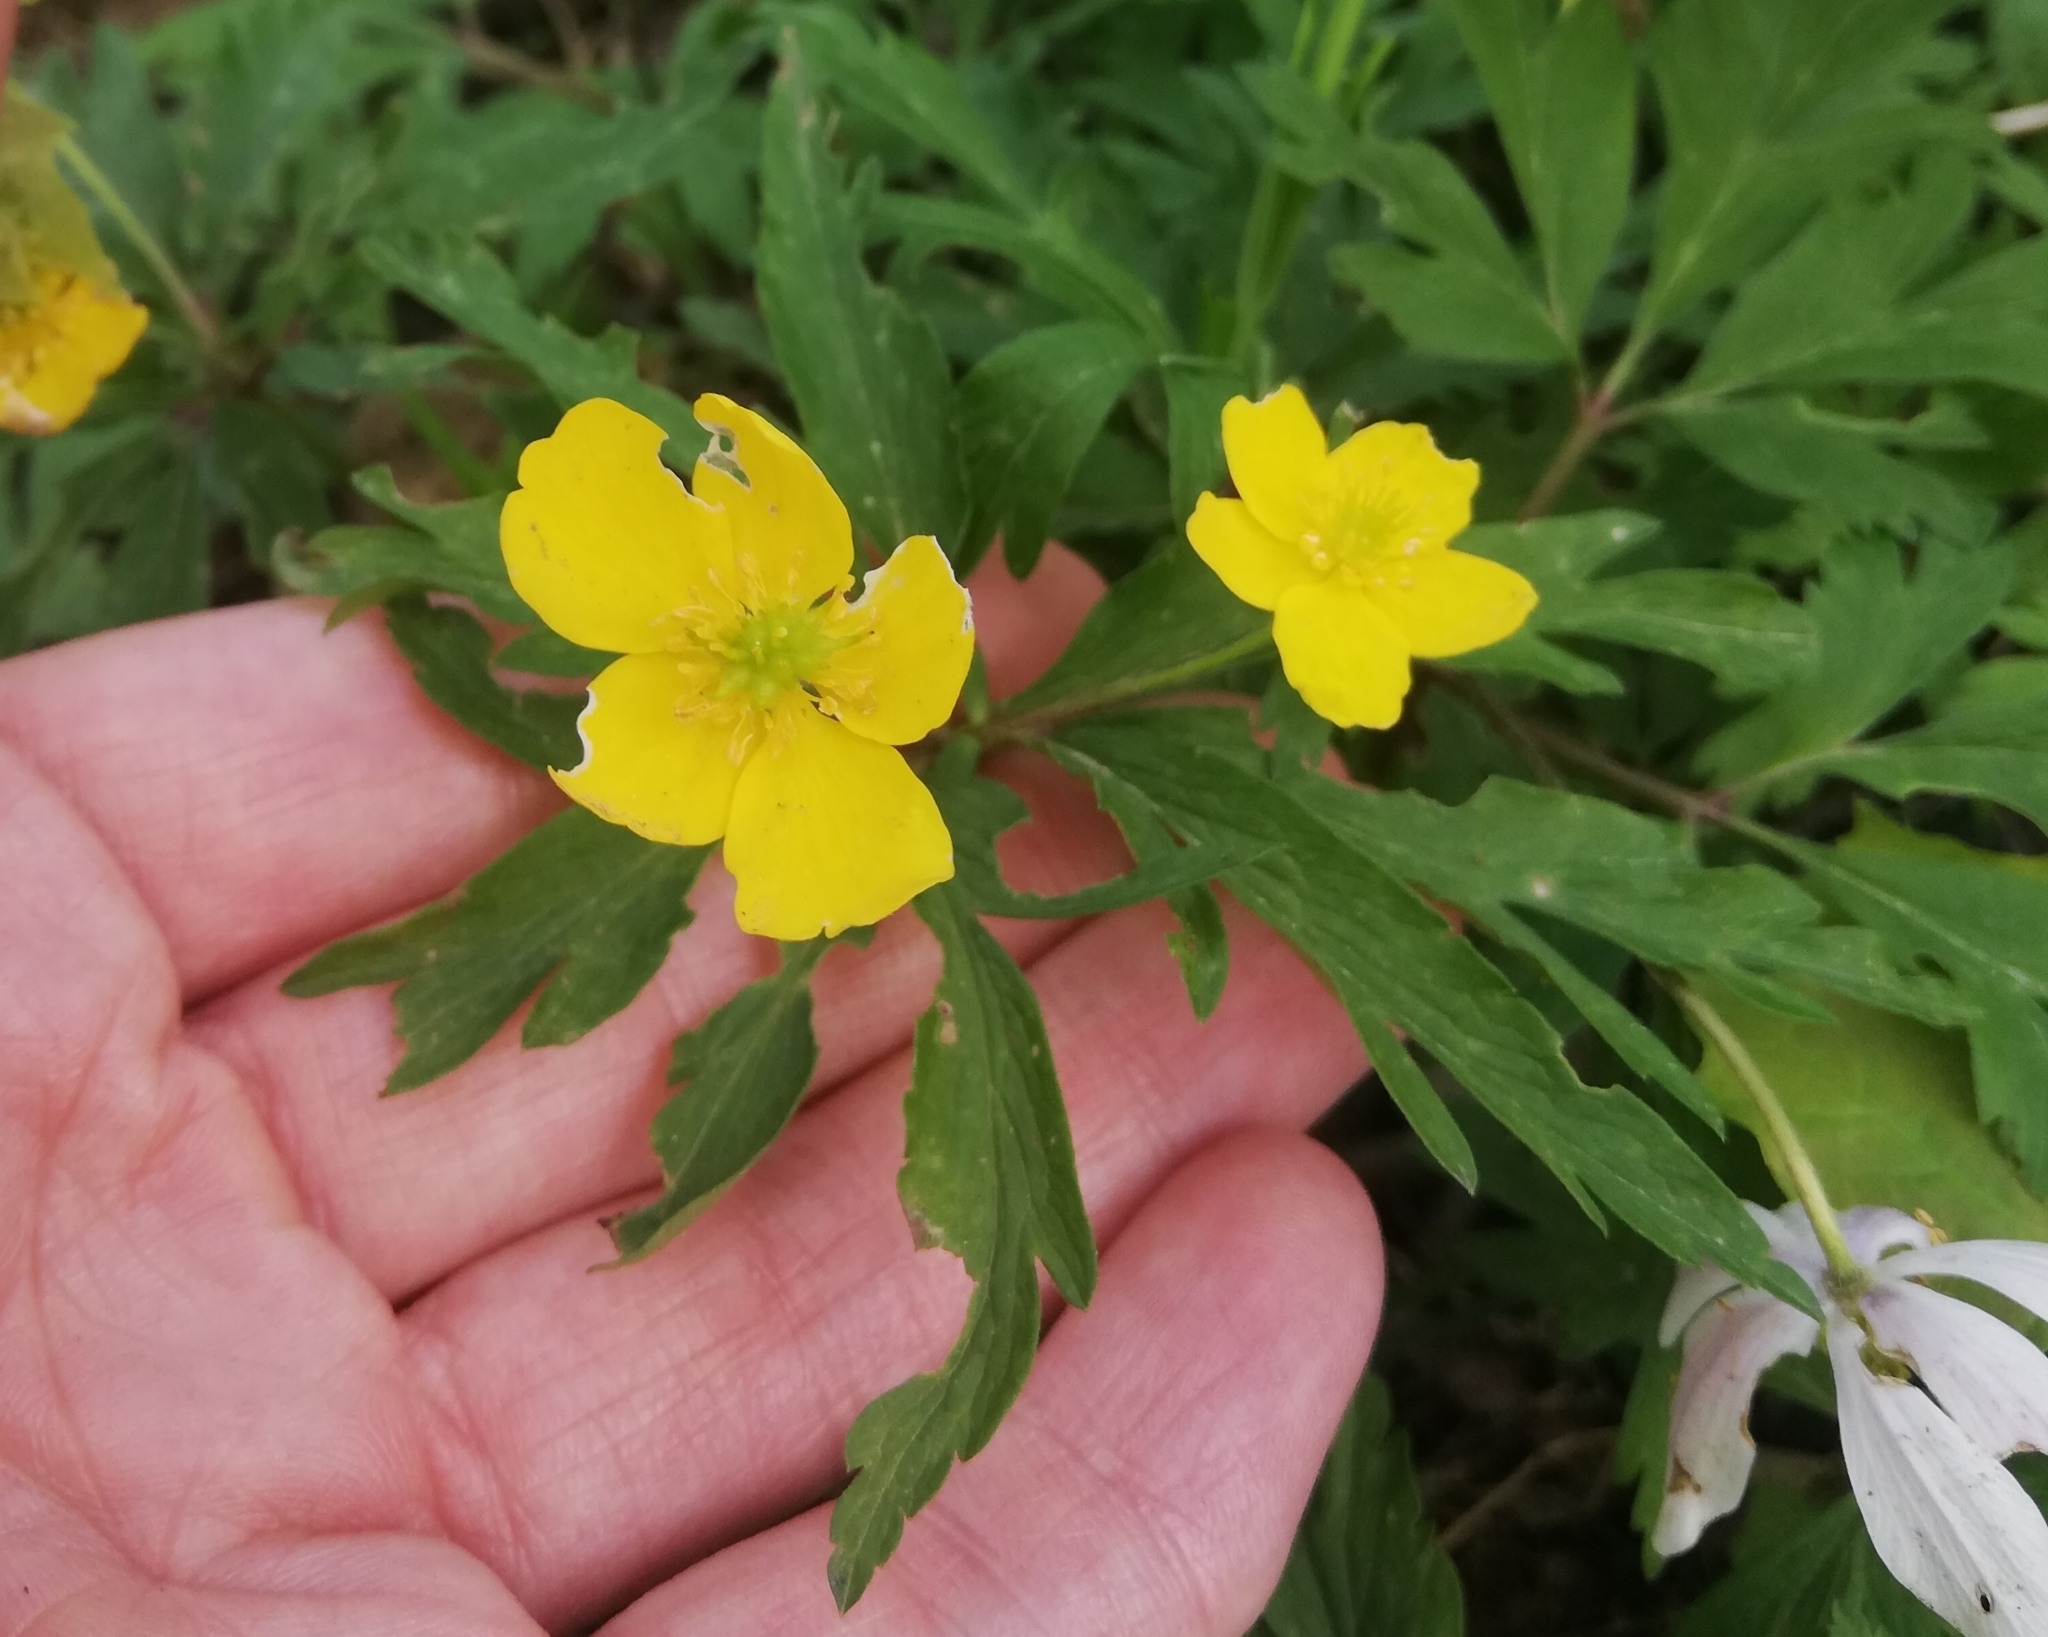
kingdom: Plantae
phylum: Tracheophyta
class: Magnoliopsida
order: Ranunculales
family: Ranunculaceae
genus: Anemone
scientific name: Anemone ranunculoides
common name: Yellow anemone
